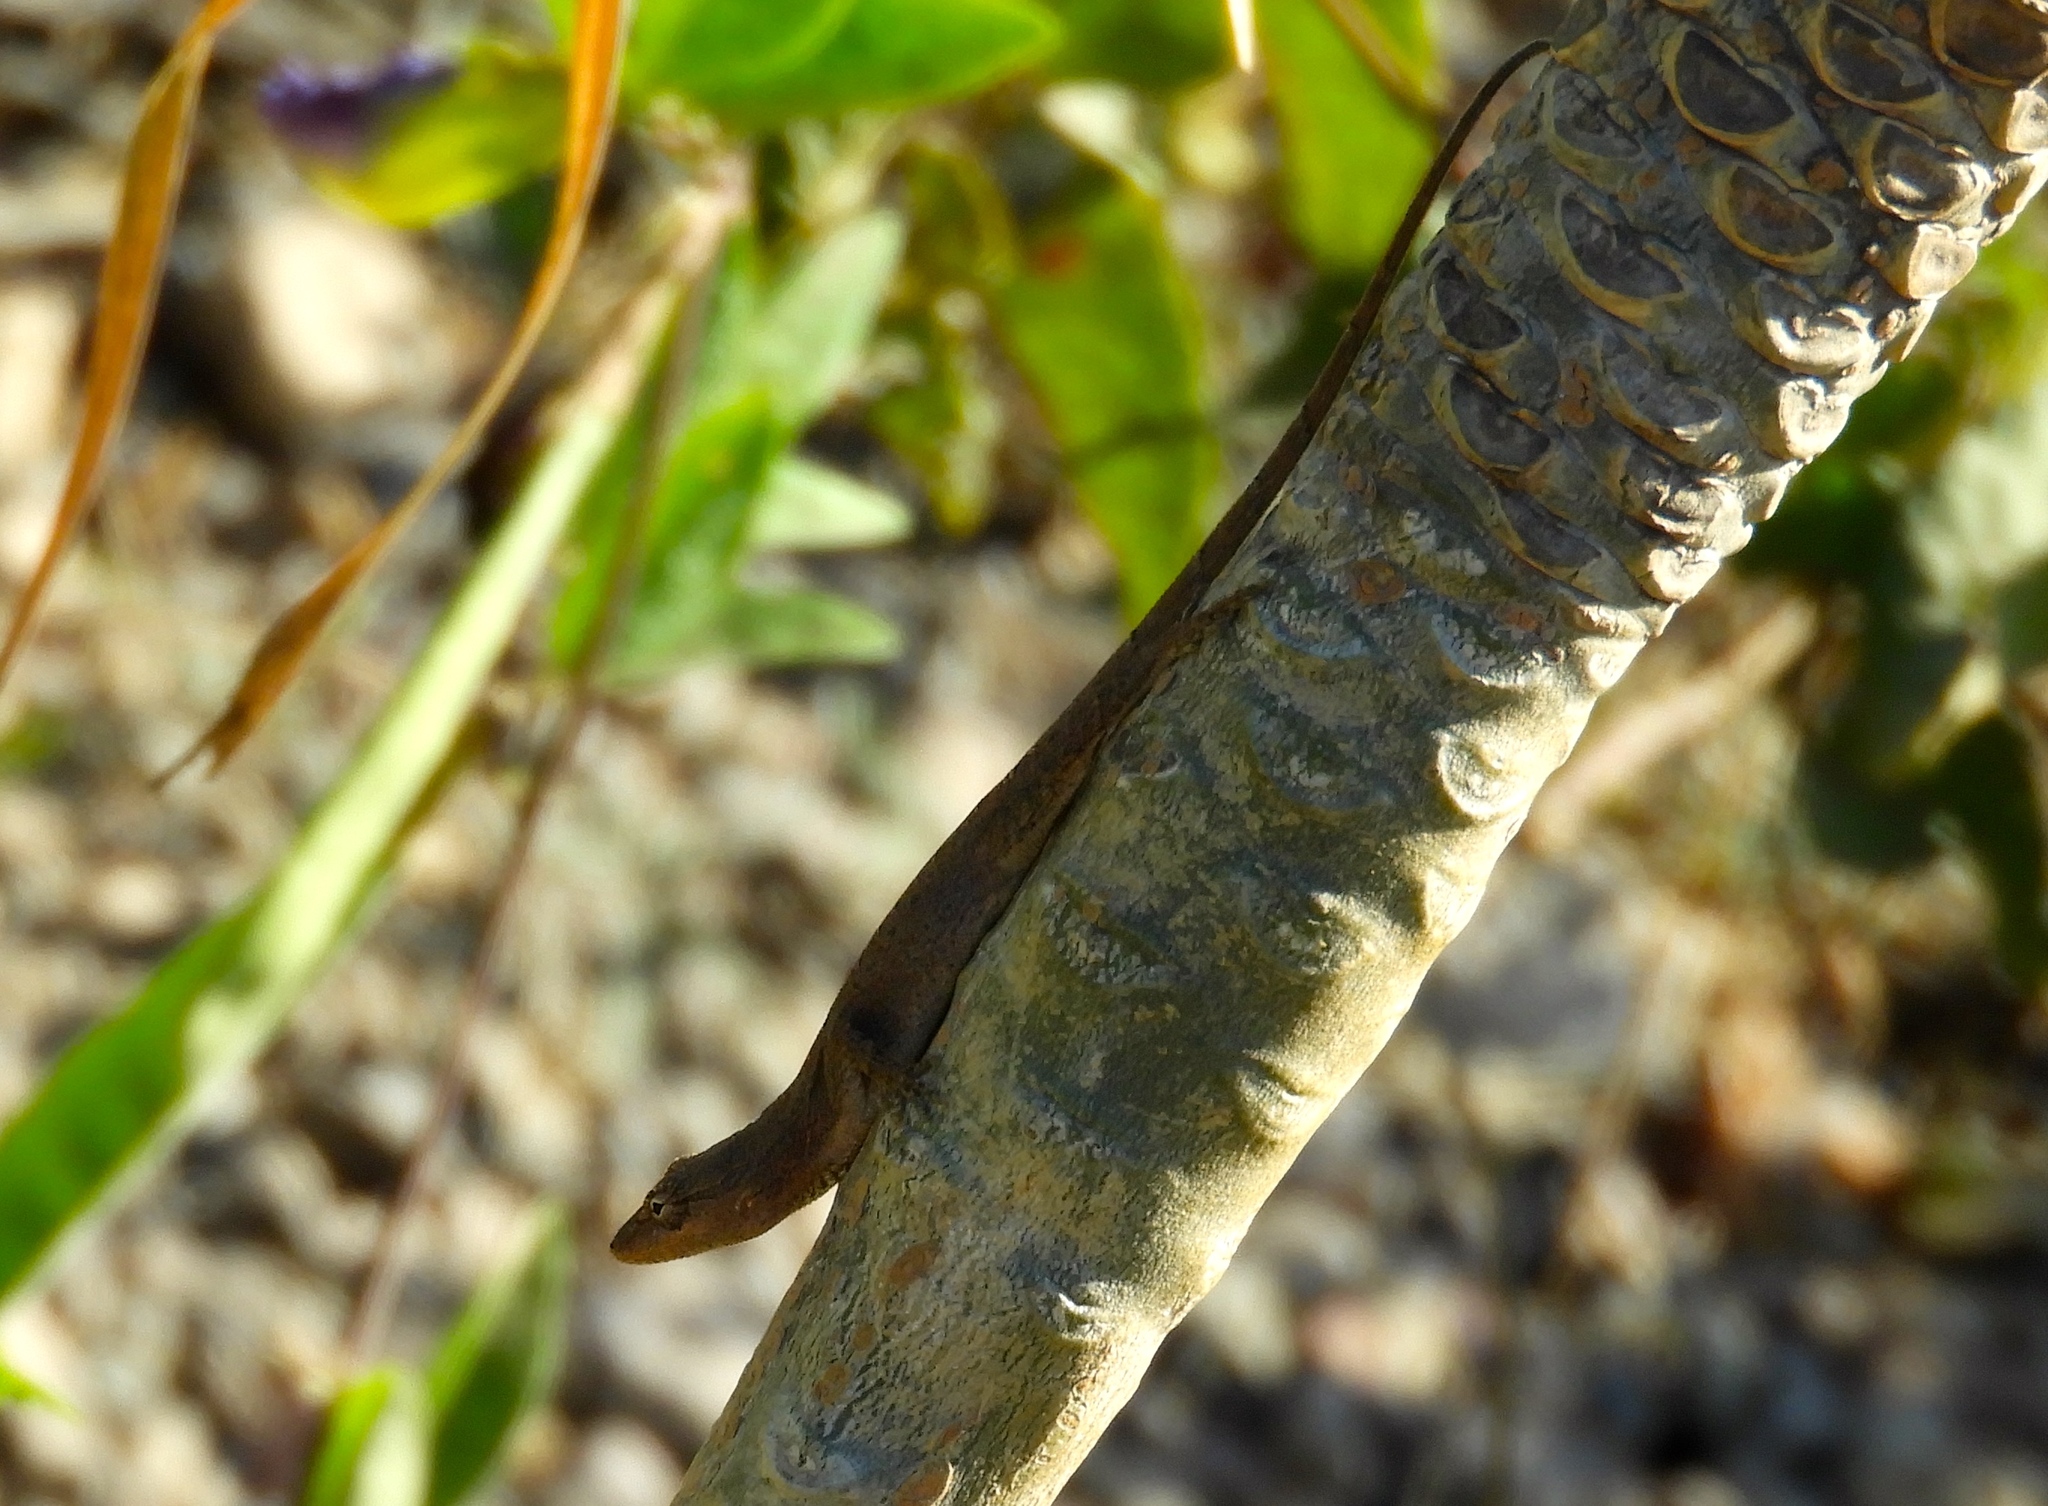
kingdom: Animalia
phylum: Chordata
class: Squamata
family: Dactyloidae
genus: Anolis
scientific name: Anolis nebulosus
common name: Clouded anole
